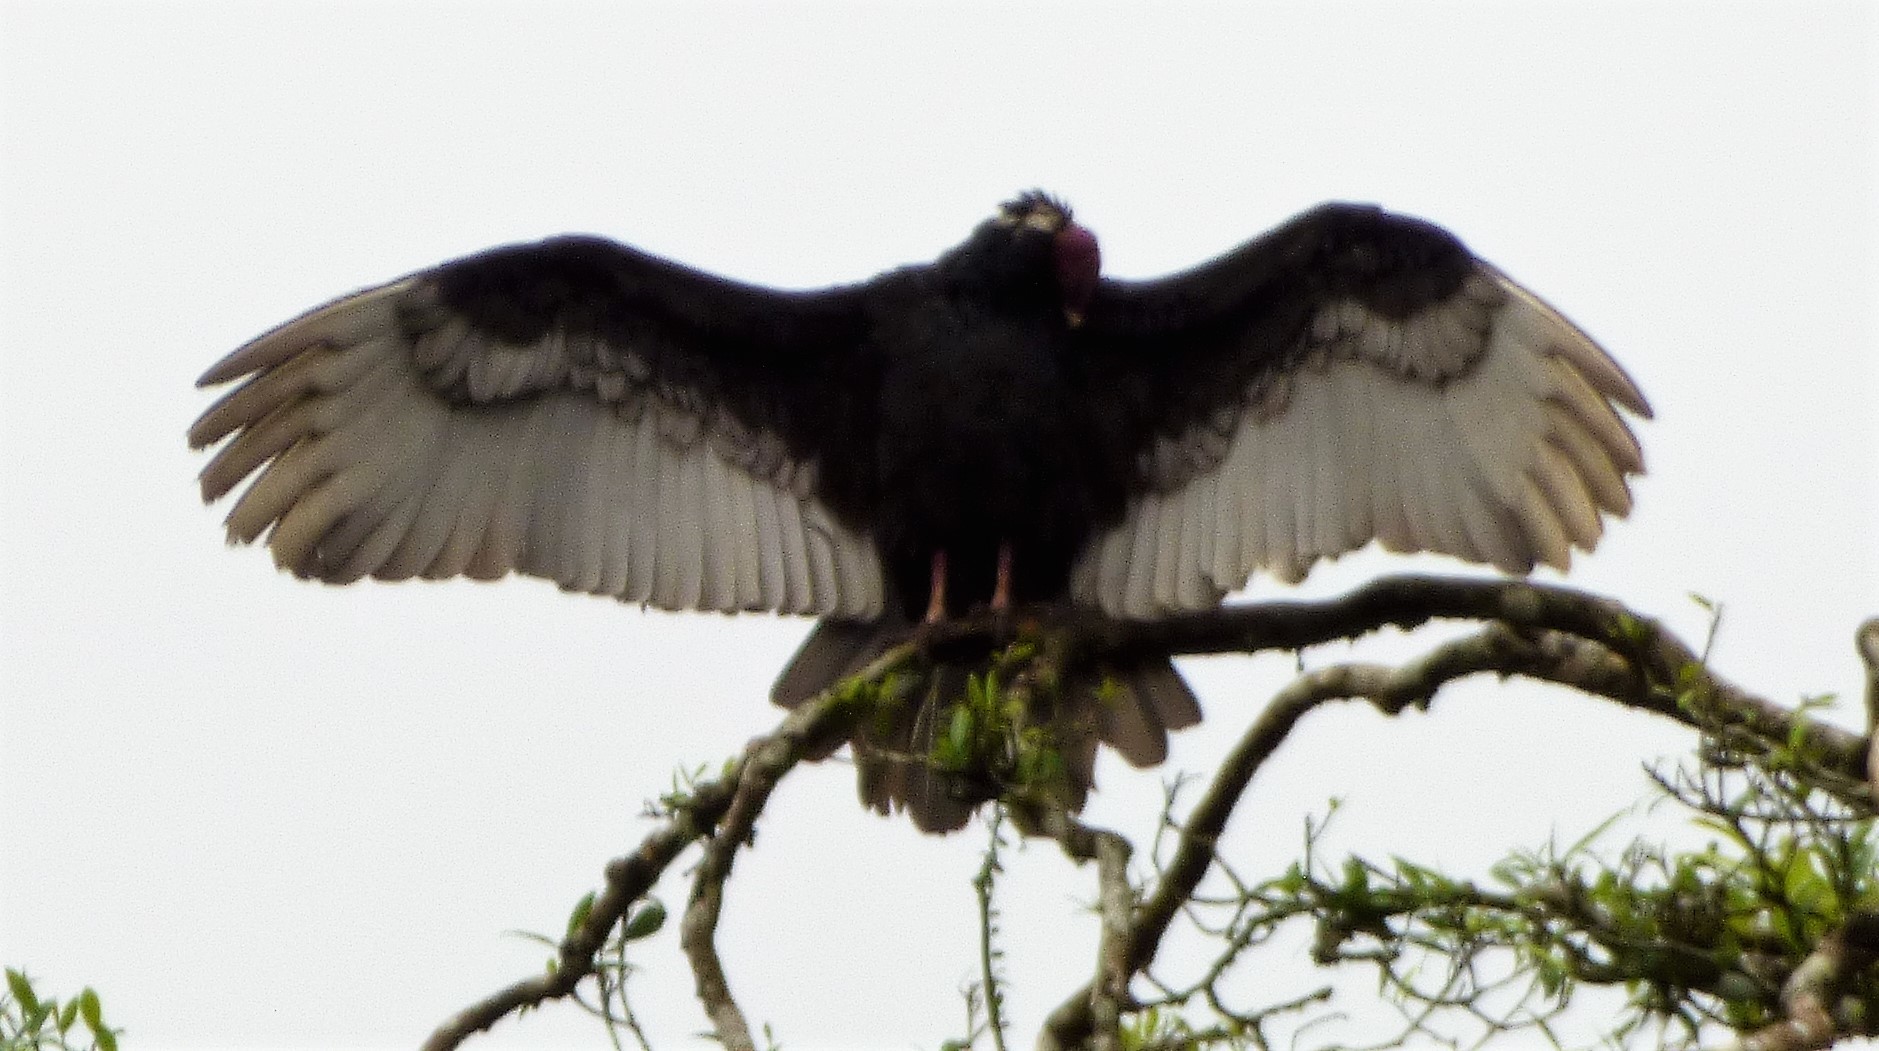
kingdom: Animalia
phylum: Chordata
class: Aves
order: Accipitriformes
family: Cathartidae
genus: Cathartes
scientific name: Cathartes aura
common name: Turkey vulture
